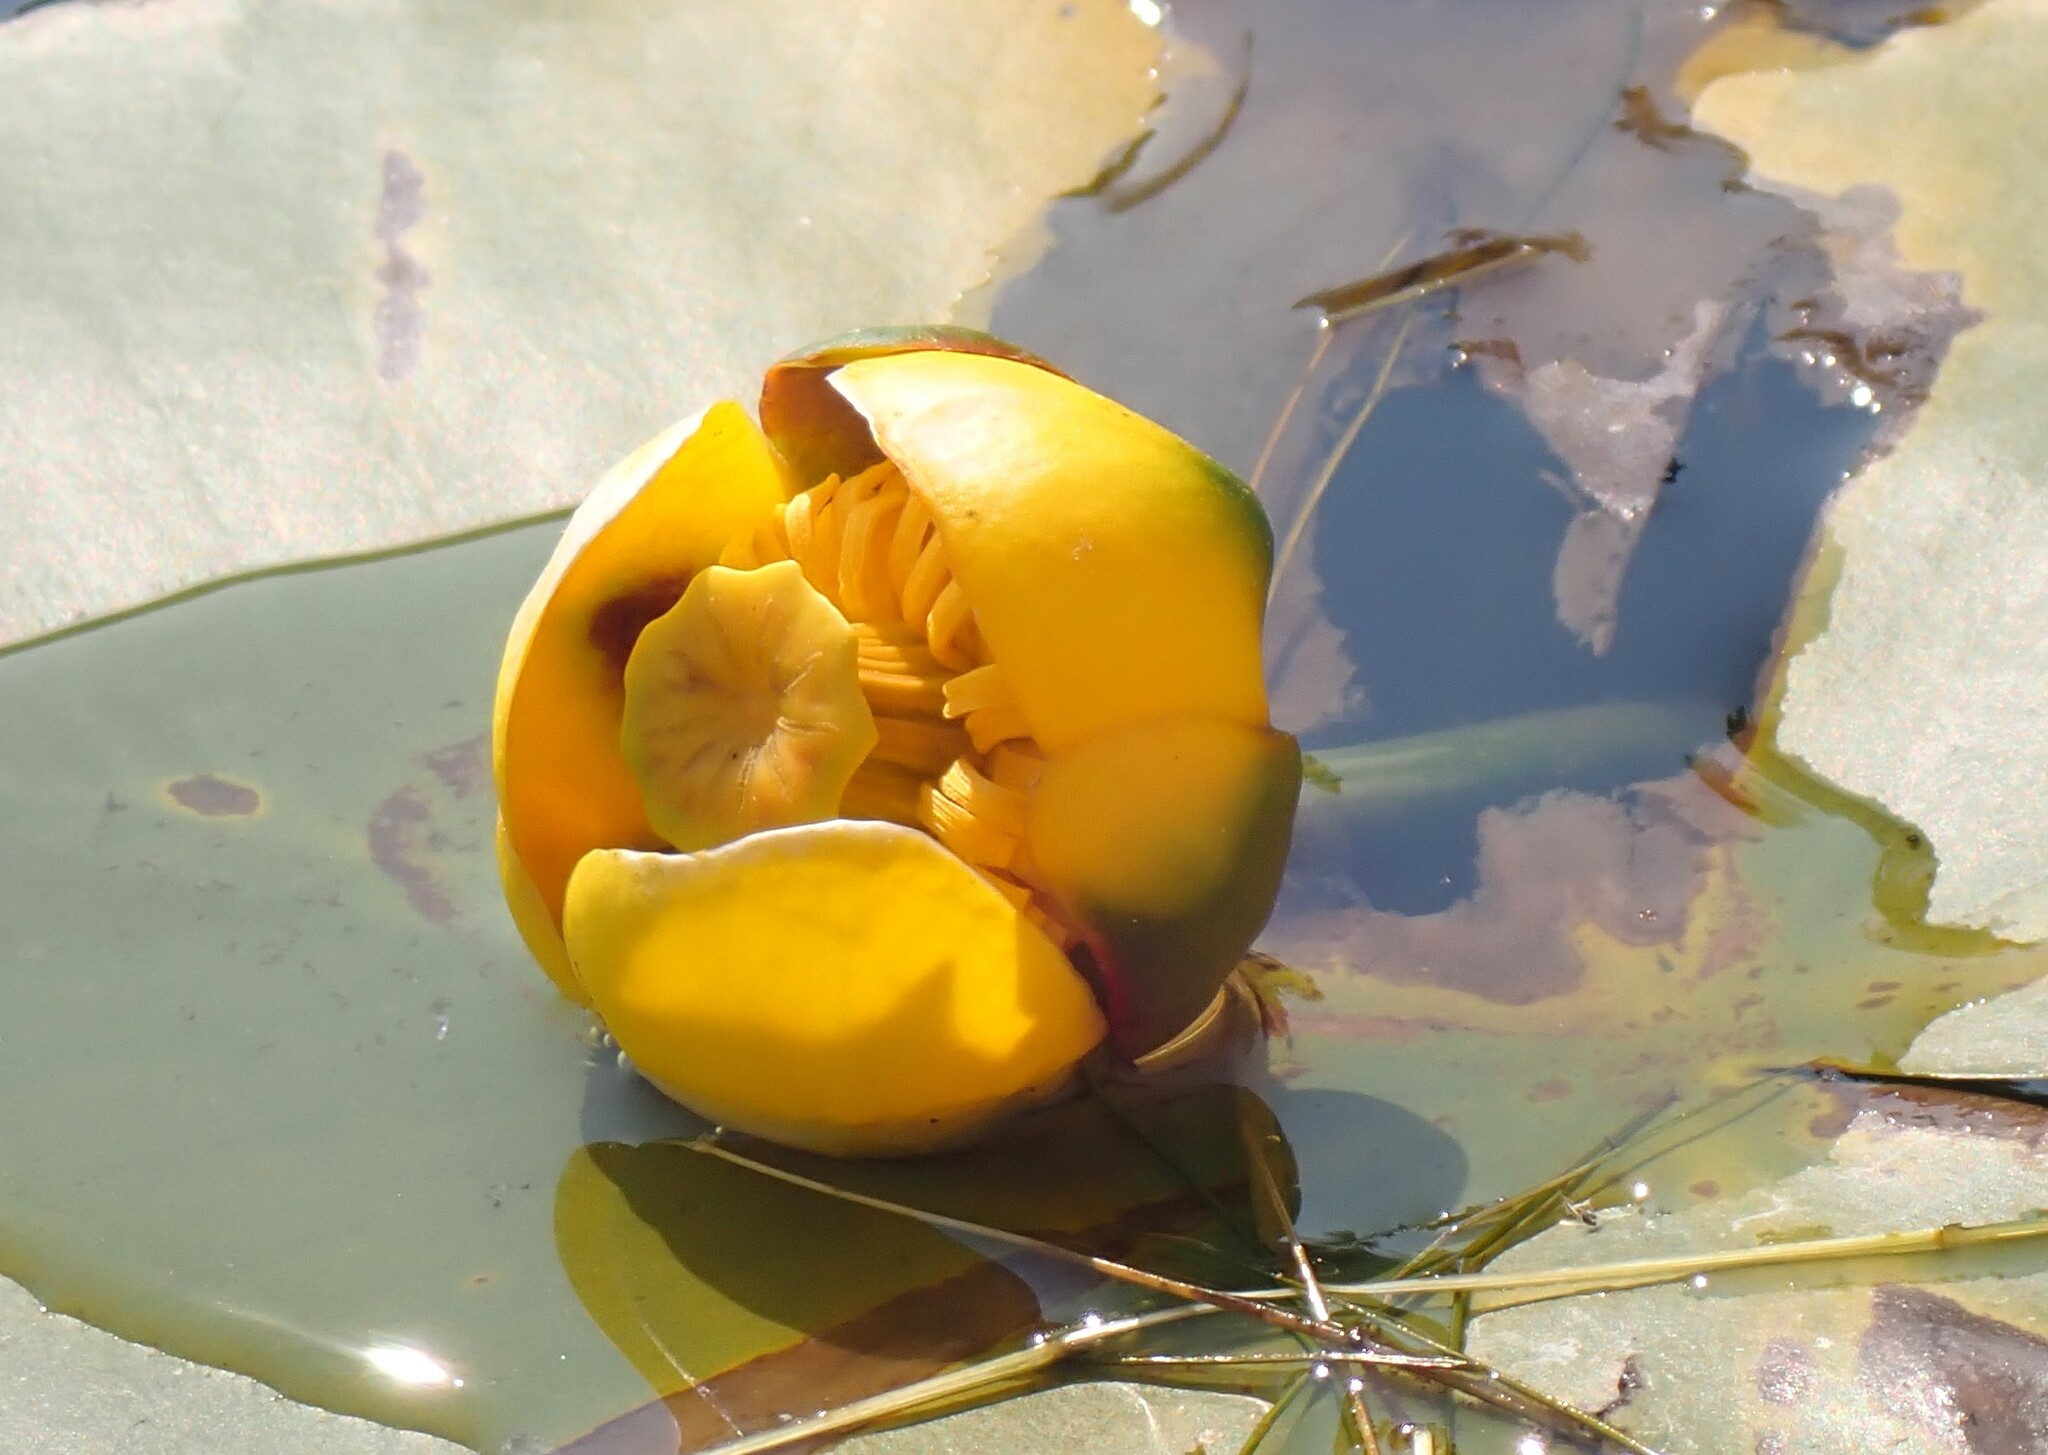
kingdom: Plantae
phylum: Tracheophyta
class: Magnoliopsida
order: Nymphaeales
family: Nymphaeaceae
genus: Nuphar
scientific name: Nuphar variegata
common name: Beaver-root
